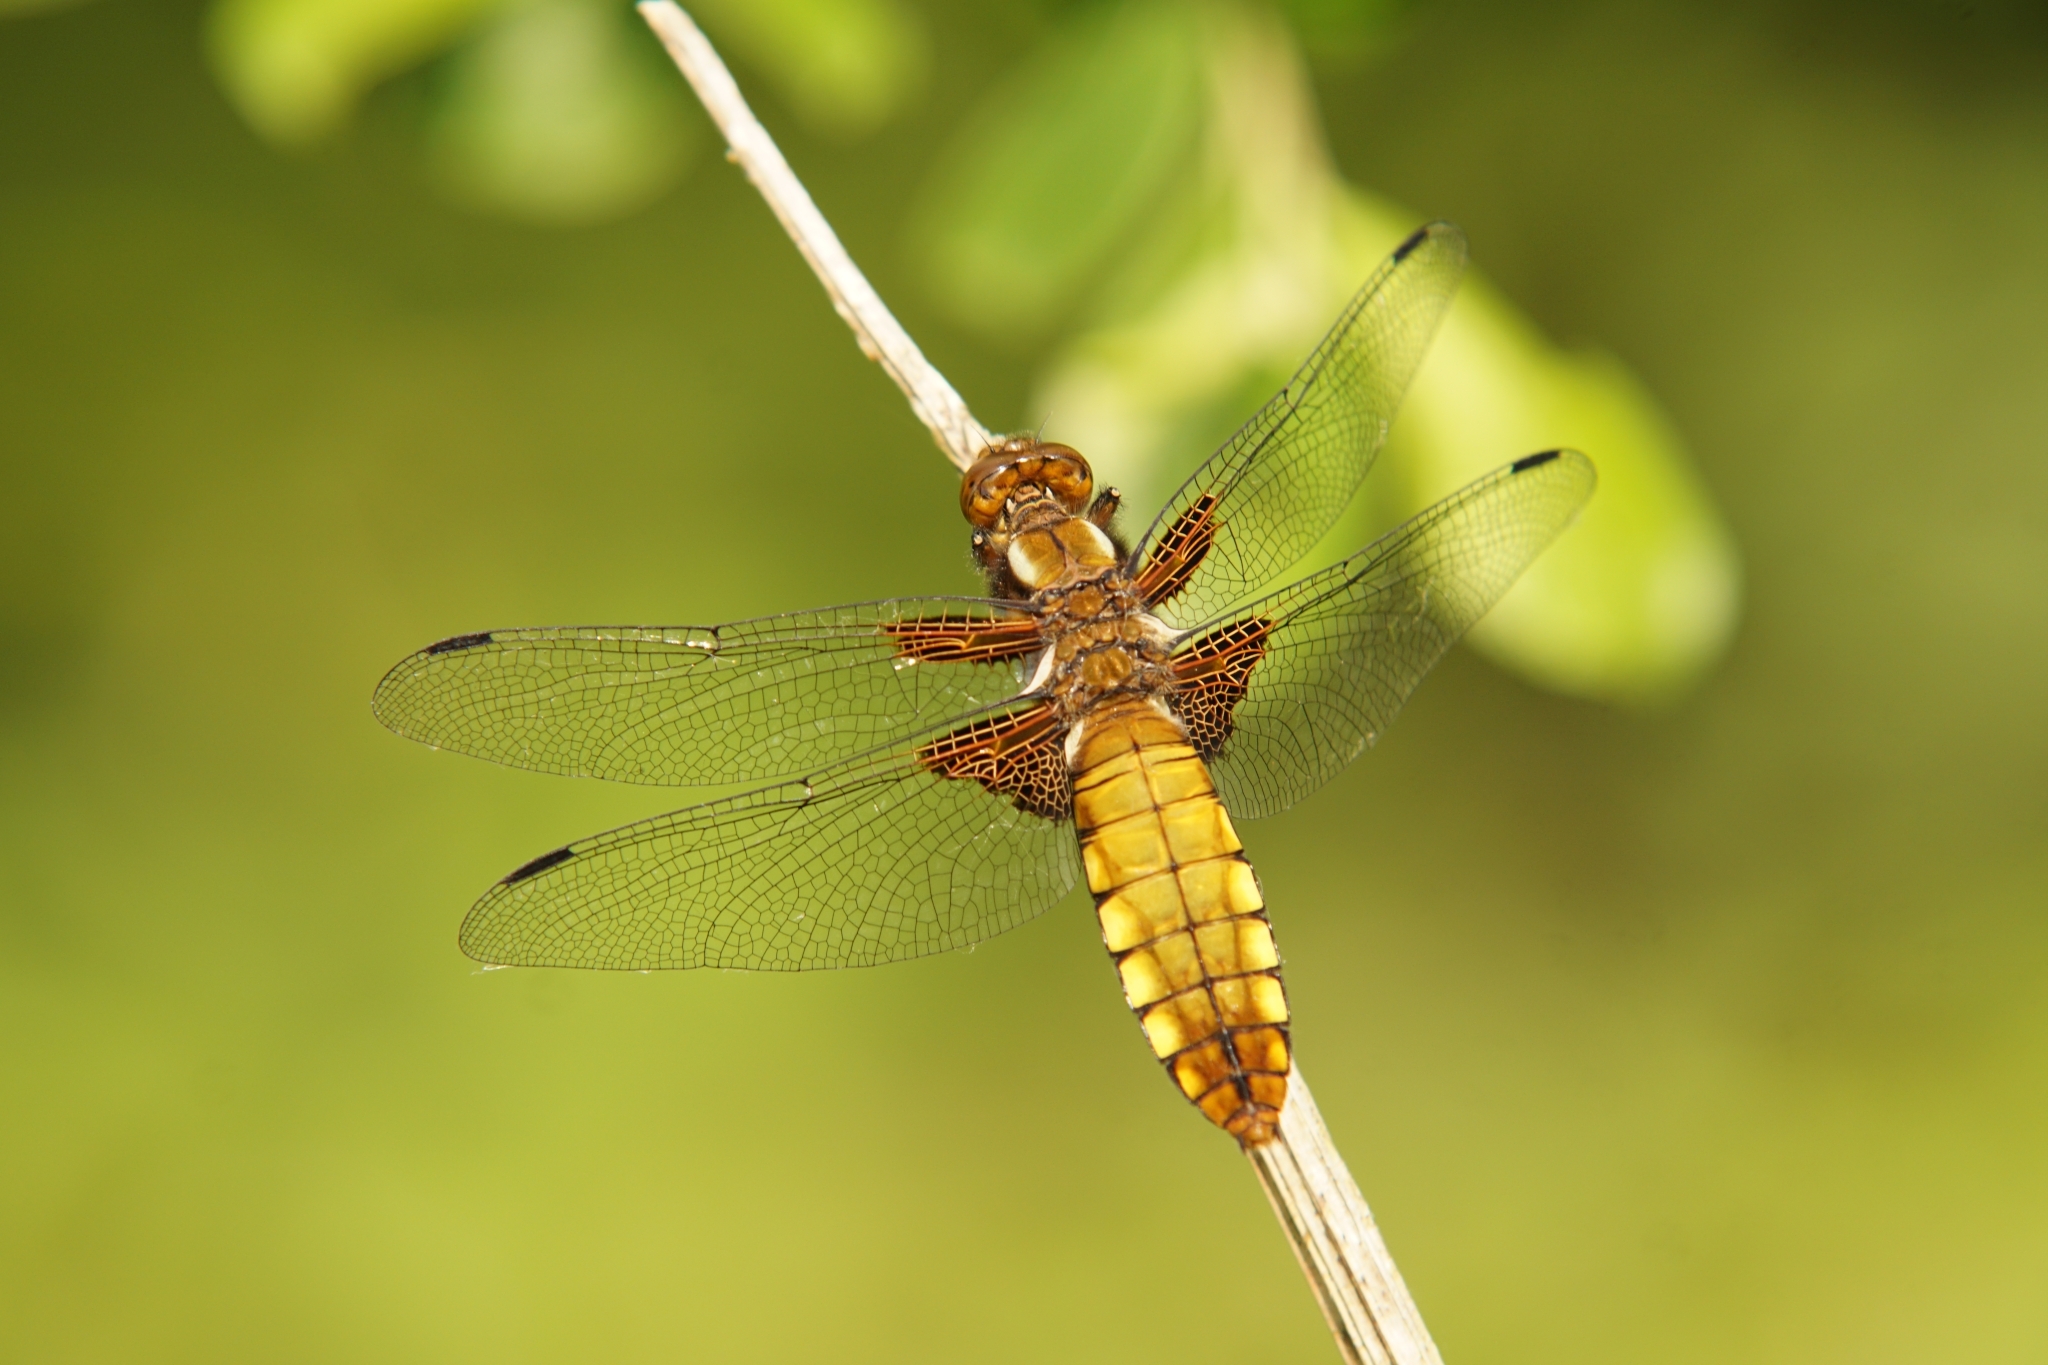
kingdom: Animalia
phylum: Arthropoda
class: Insecta
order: Odonata
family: Libellulidae
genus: Libellula
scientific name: Libellula depressa
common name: Broad-bodied chaser
